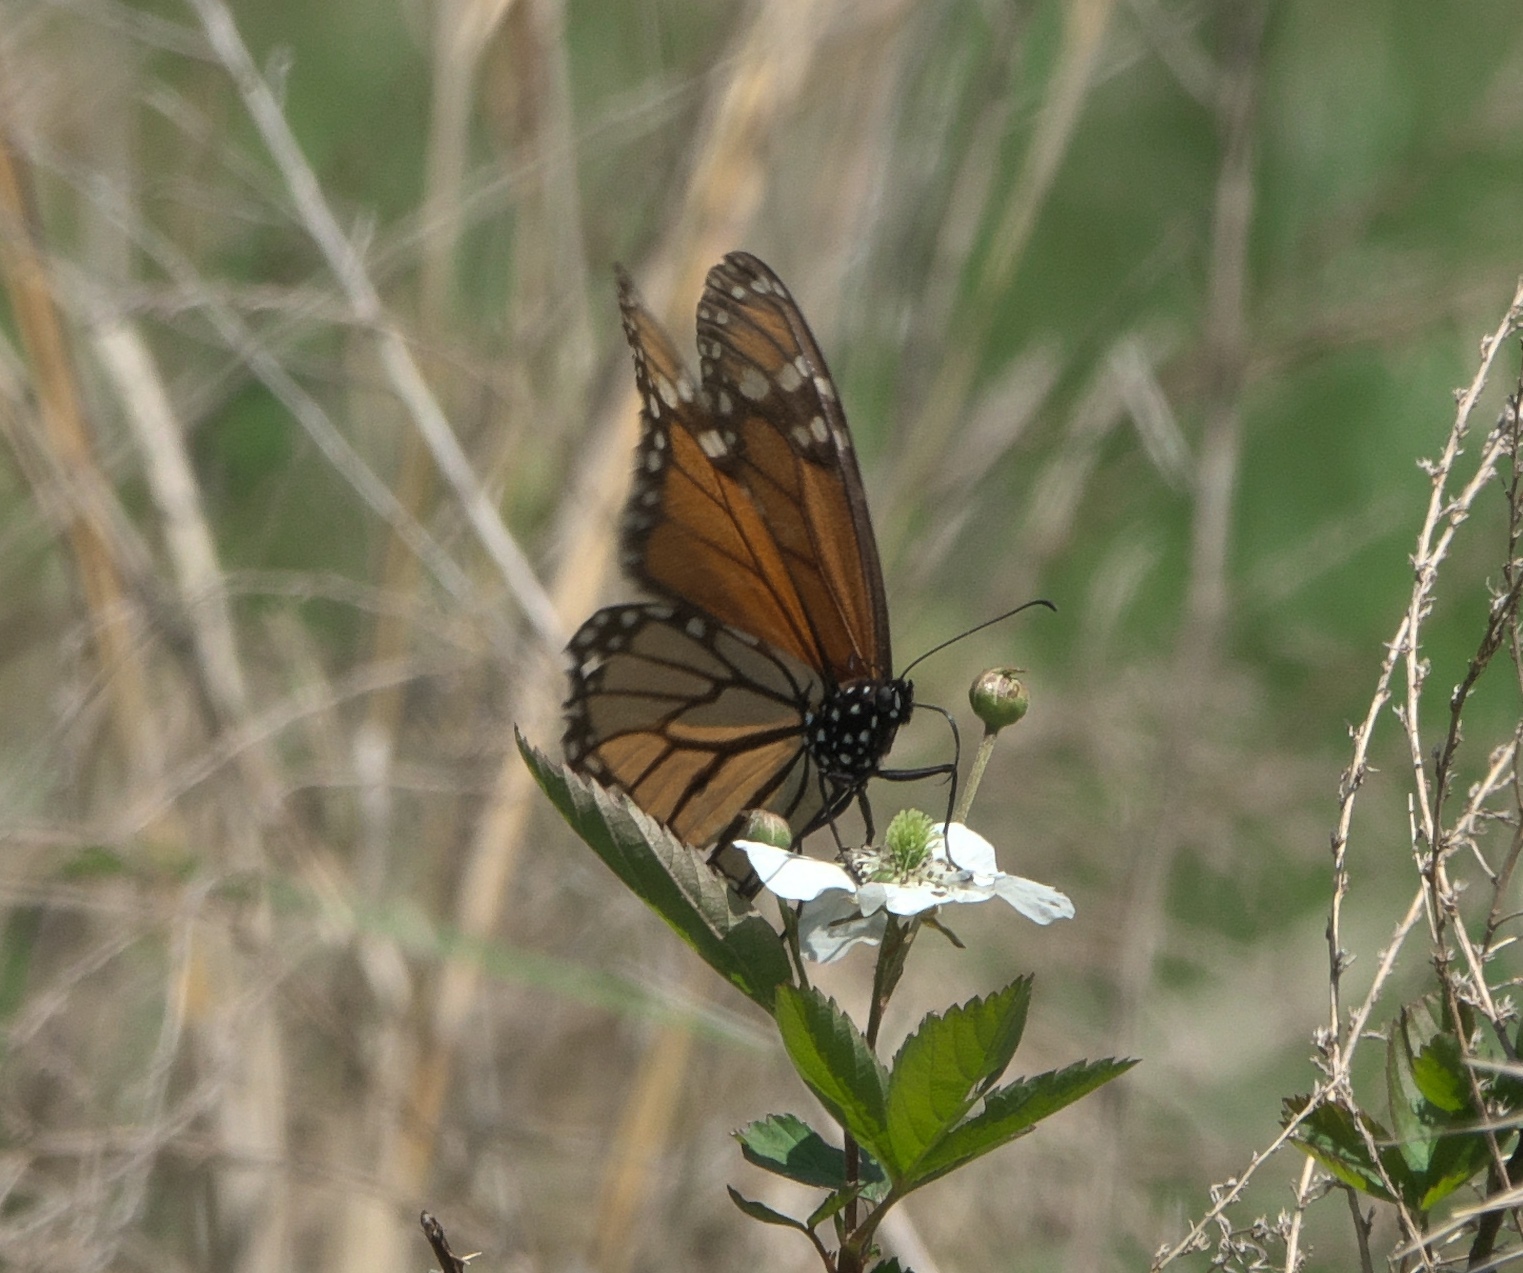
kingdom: Animalia
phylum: Arthropoda
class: Insecta
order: Lepidoptera
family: Nymphalidae
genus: Danaus
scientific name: Danaus plexippus
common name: Monarch
